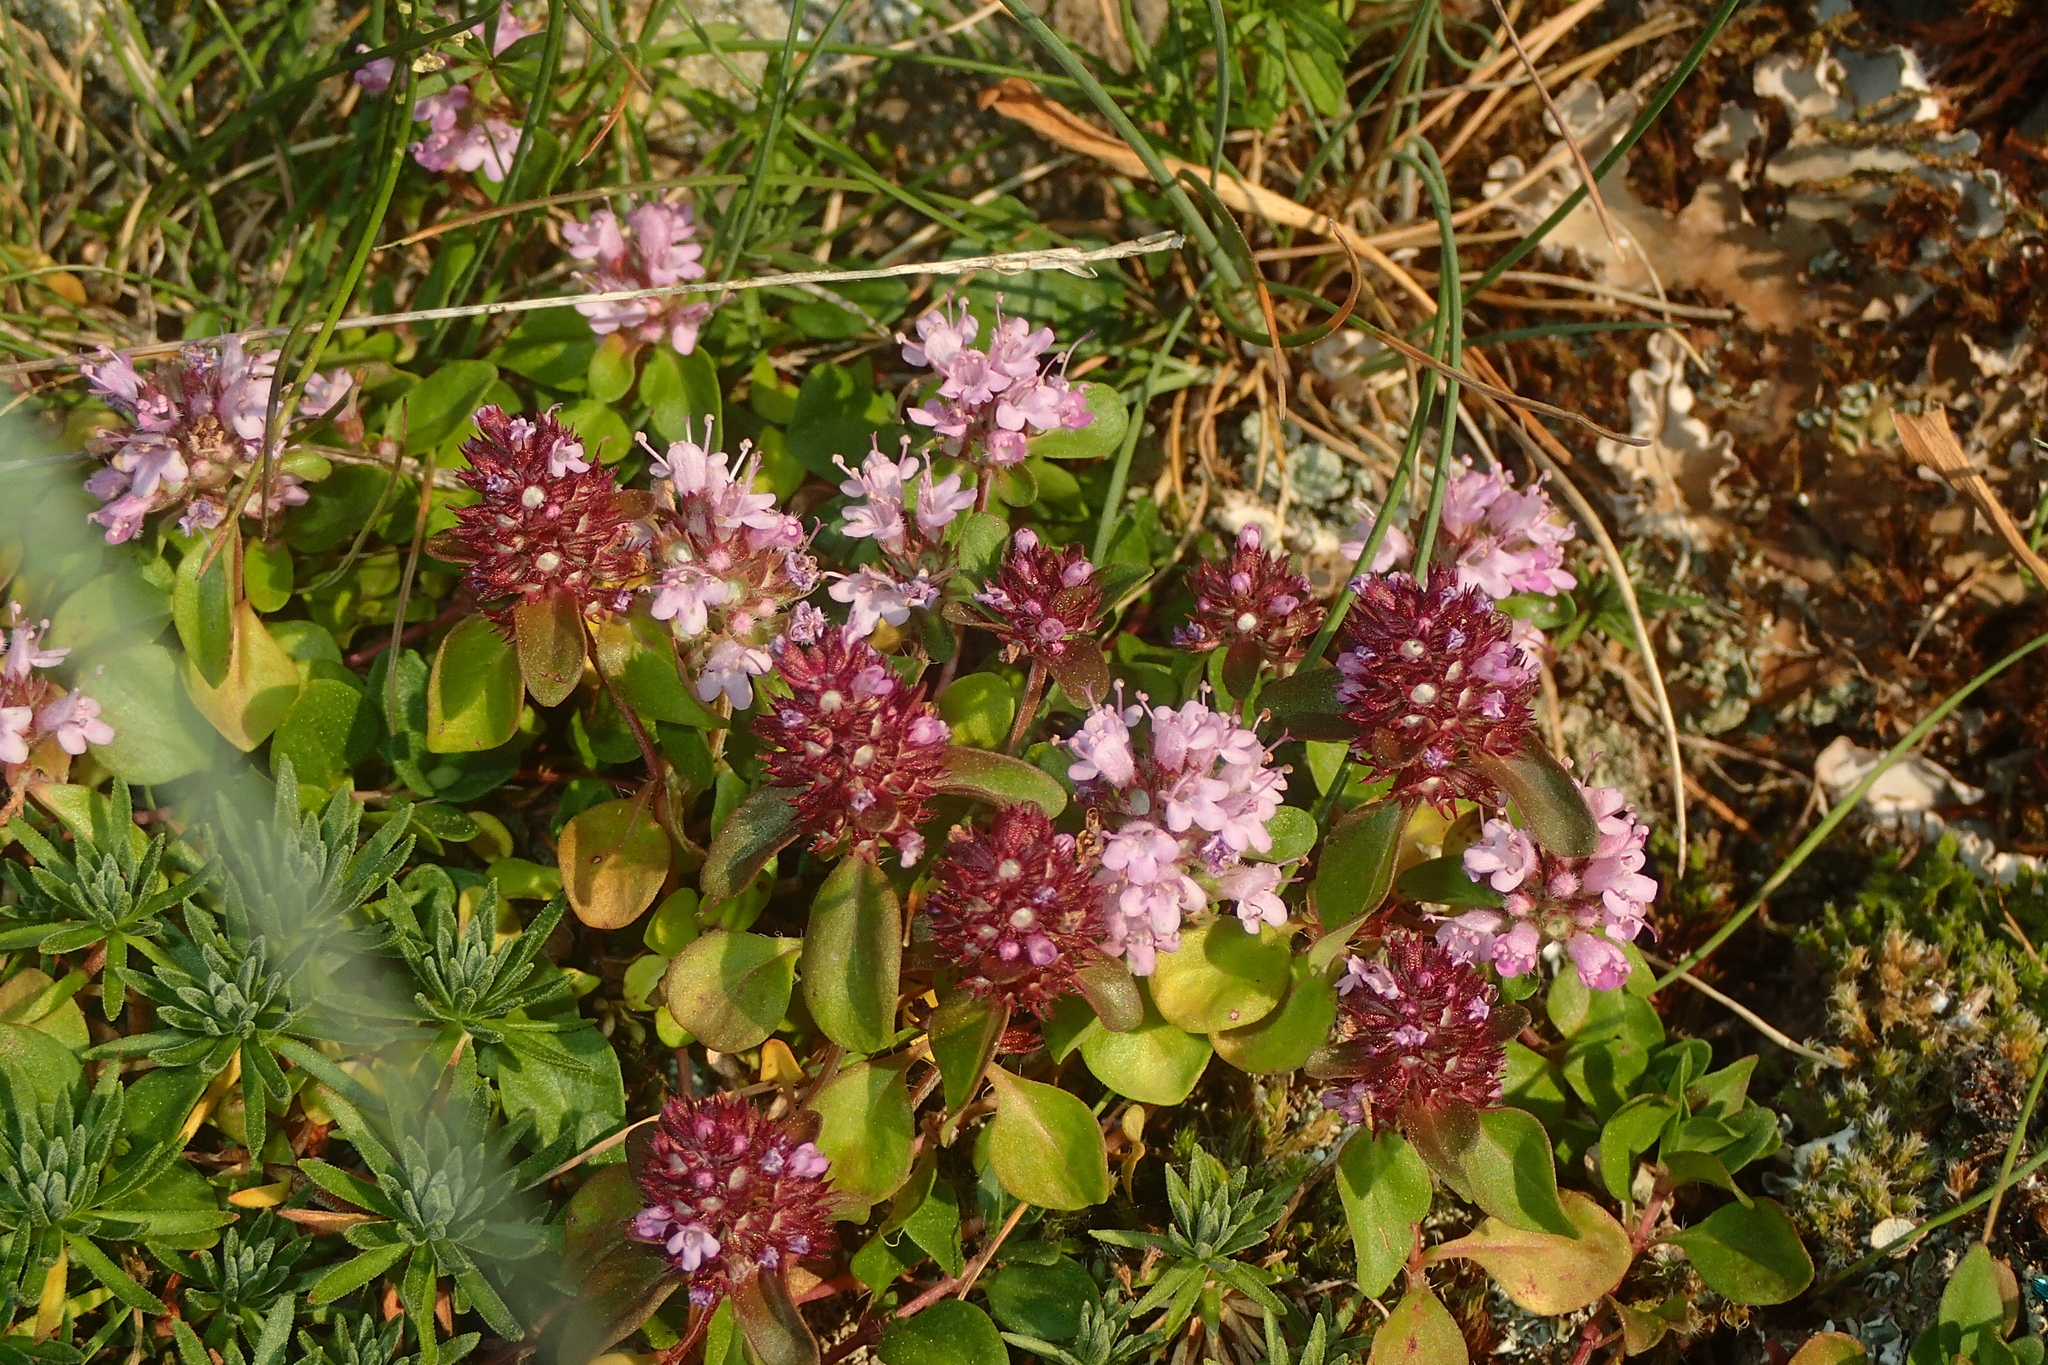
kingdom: Plantae
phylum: Tracheophyta
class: Magnoliopsida
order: Lamiales
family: Lamiaceae
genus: Thymus
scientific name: Thymus pulegioides
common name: Large thyme
